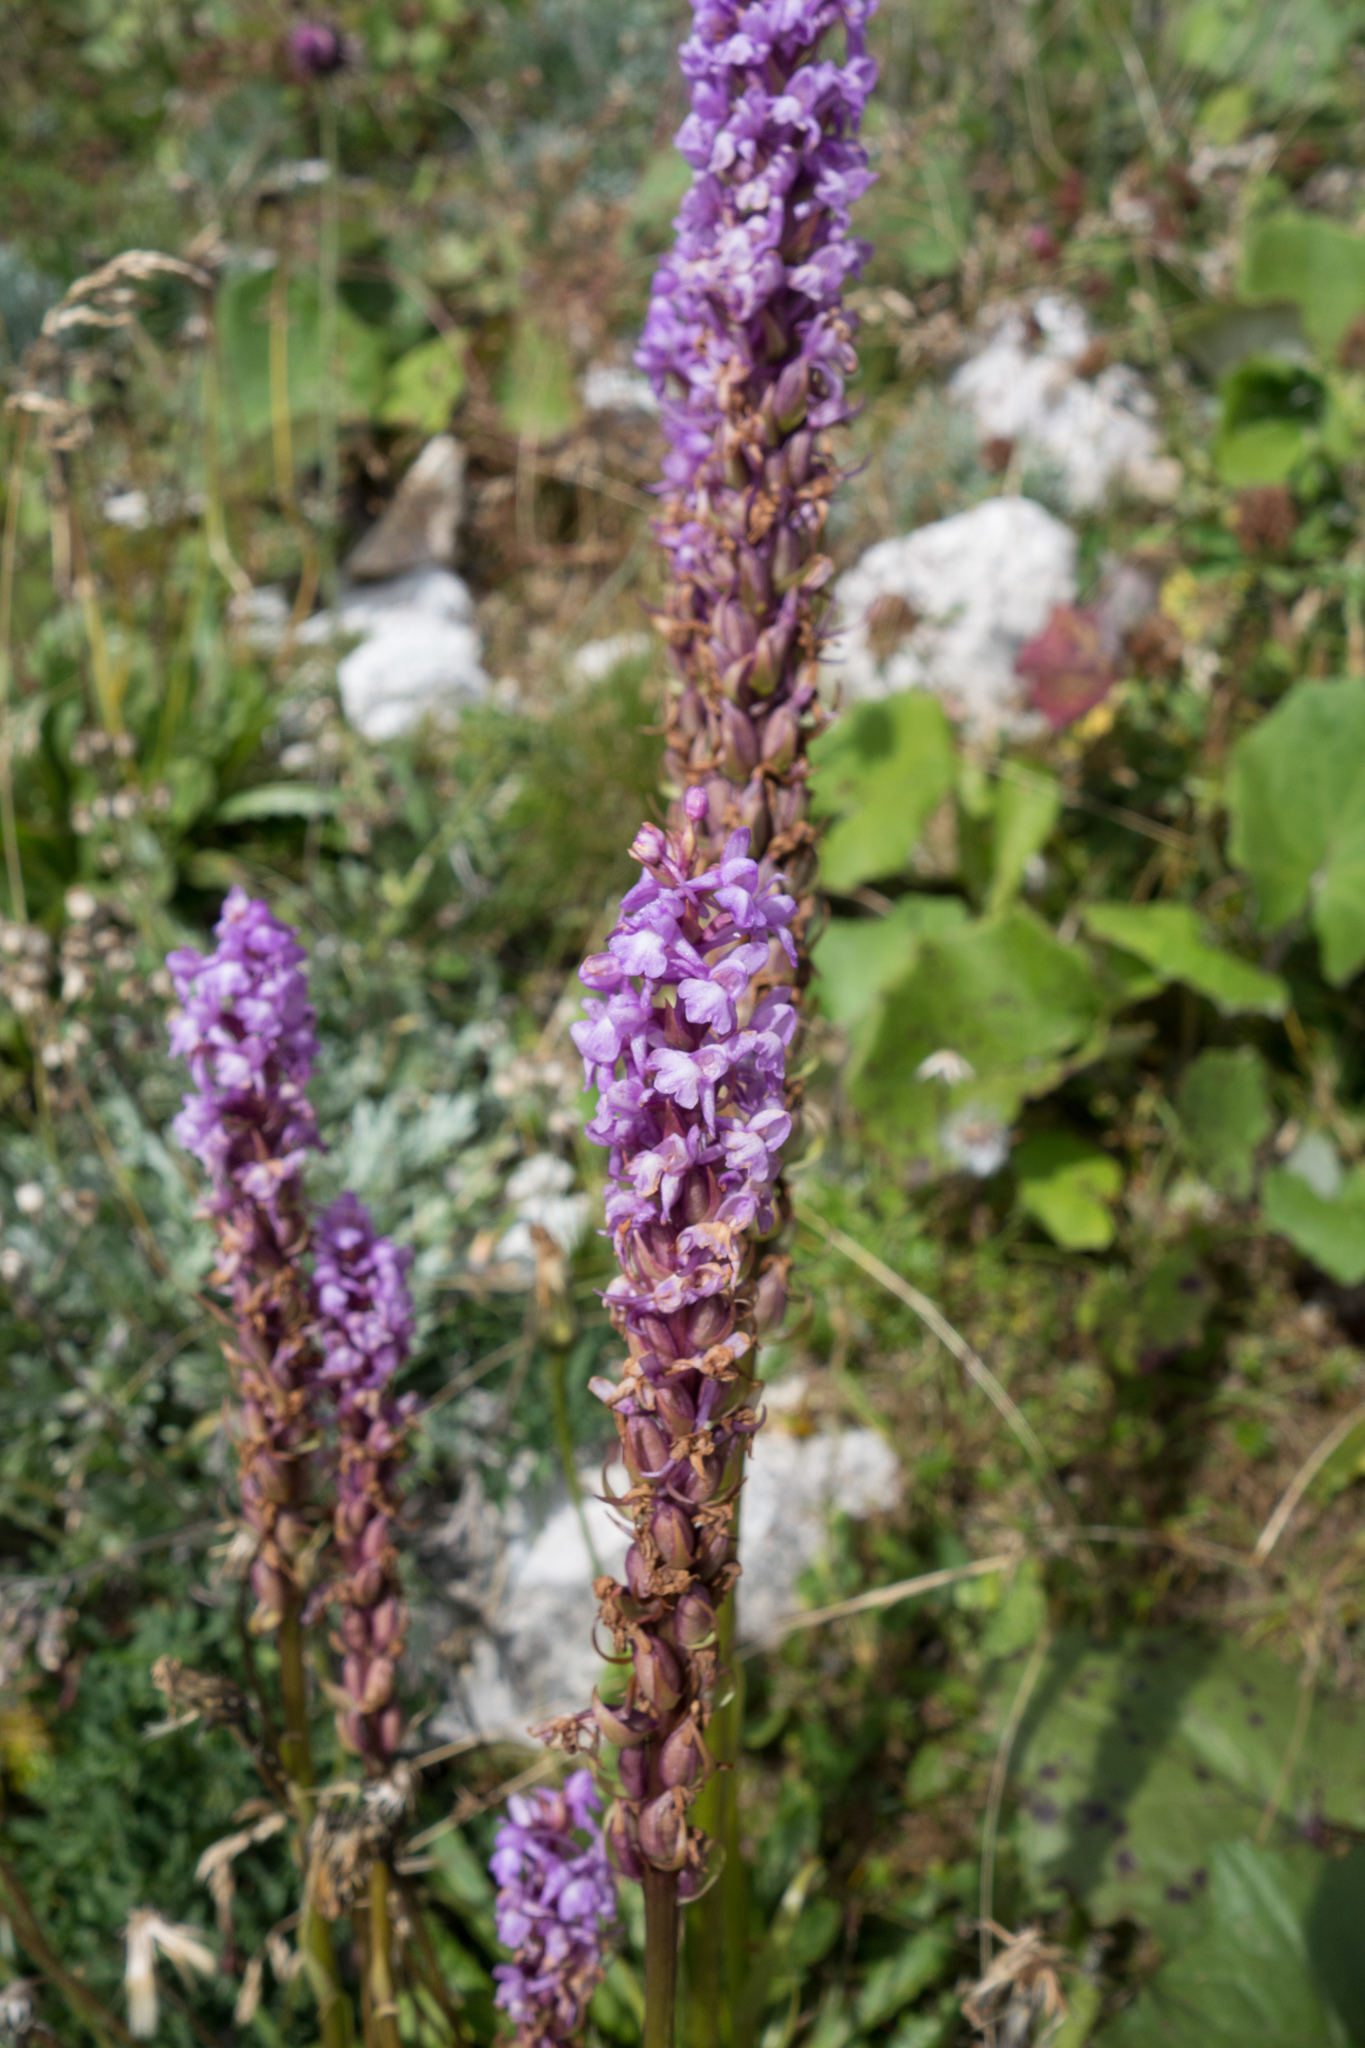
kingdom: Plantae
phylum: Tracheophyta
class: Liliopsida
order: Asparagales
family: Orchidaceae
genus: Gymnadenia
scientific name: Gymnadenia conopsea
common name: Fragrant orchid
